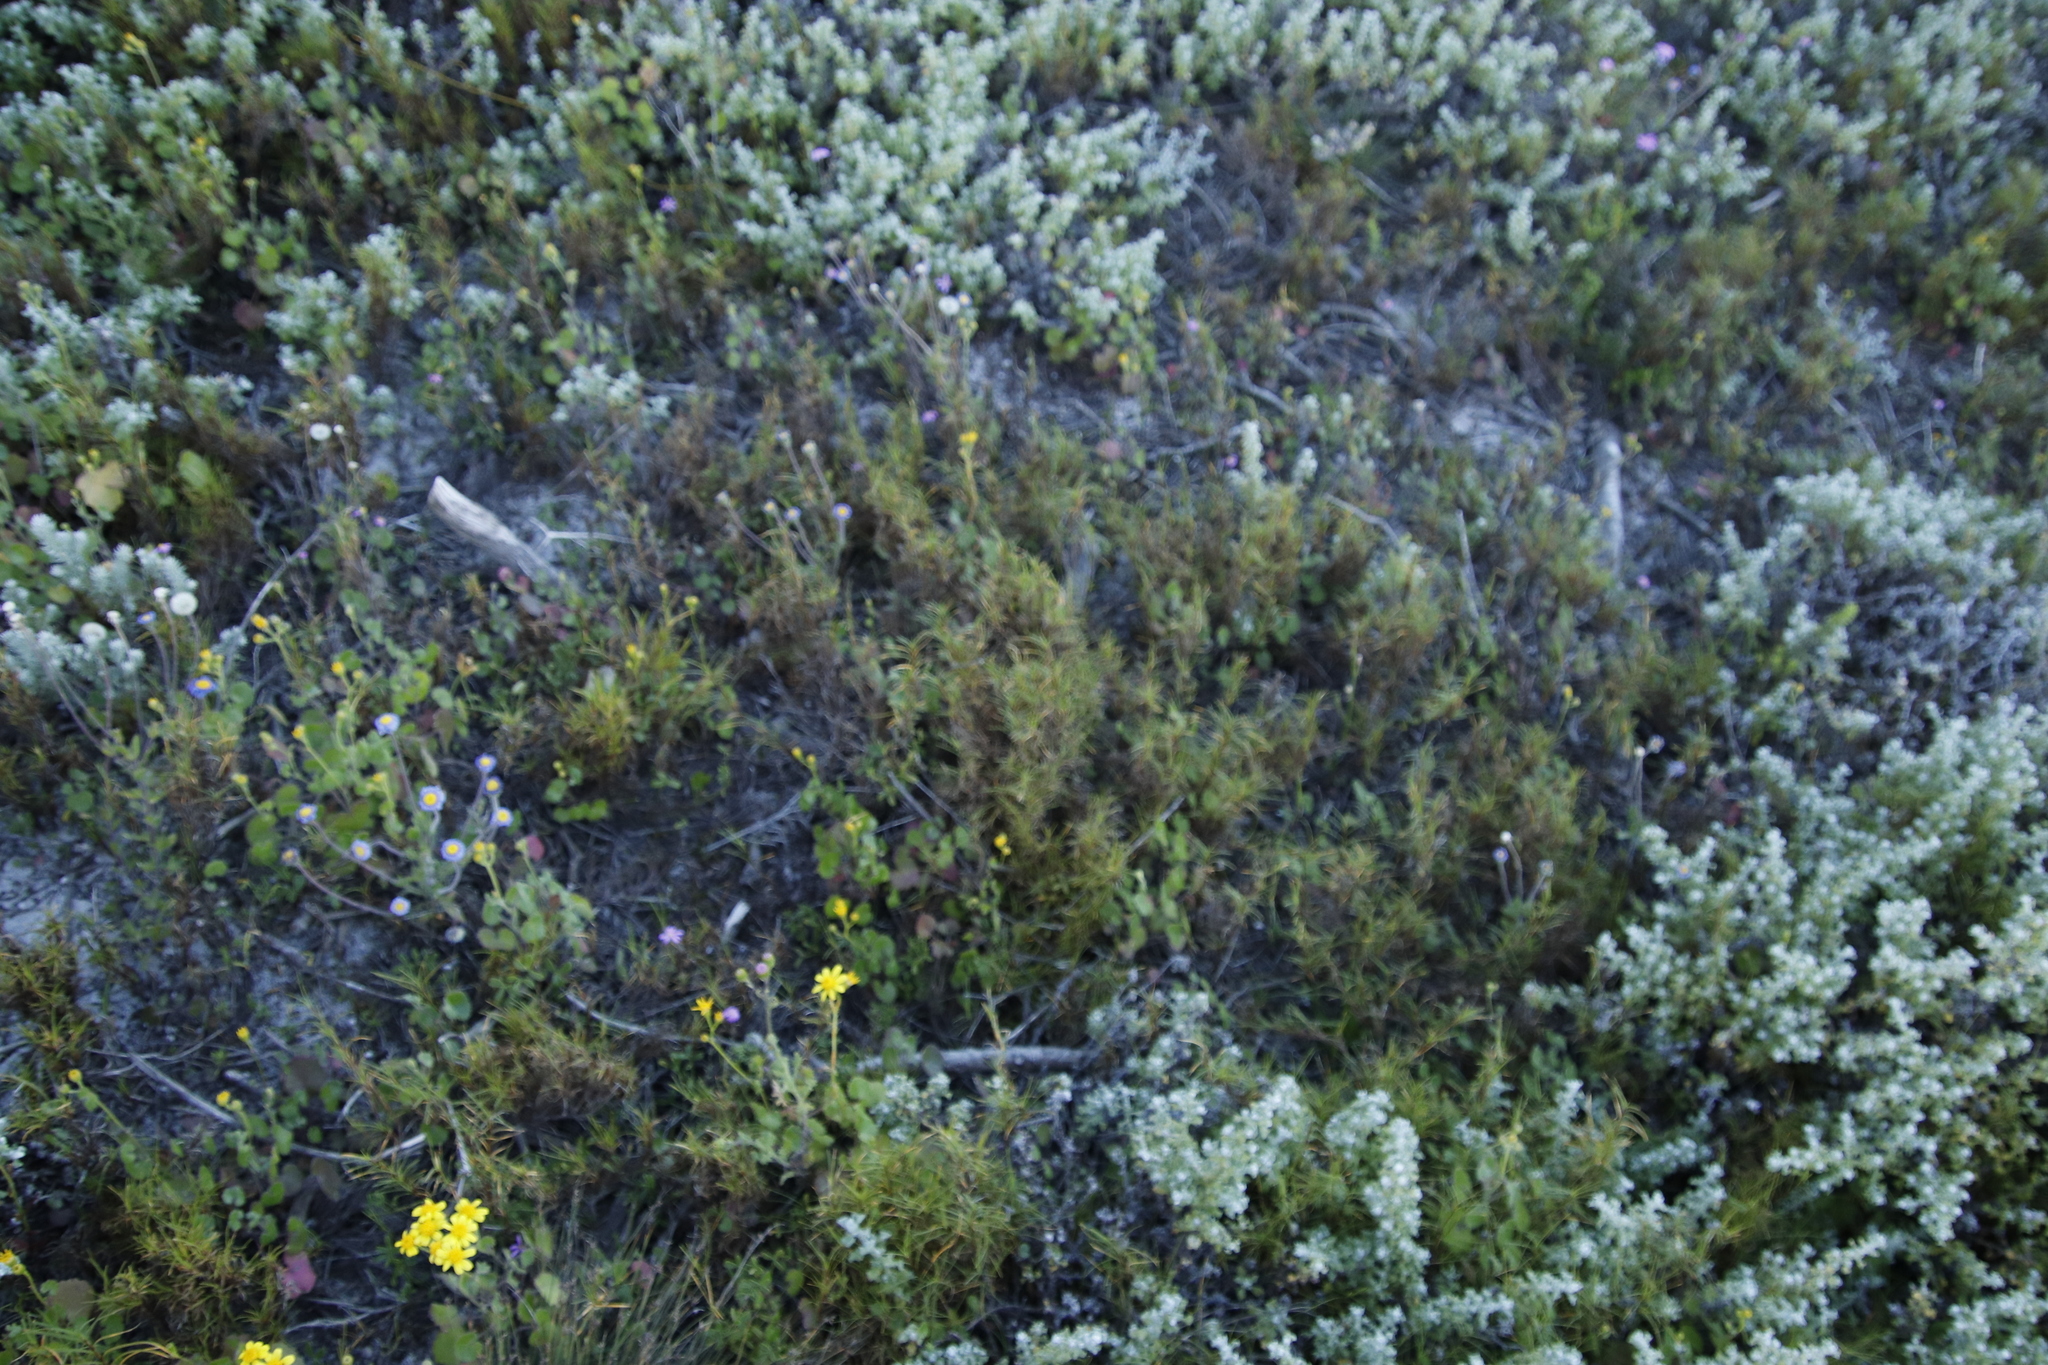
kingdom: Plantae
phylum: Tracheophyta
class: Liliopsida
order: Poales
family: Cyperaceae
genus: Ficinia
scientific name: Ficinia ramosissima
